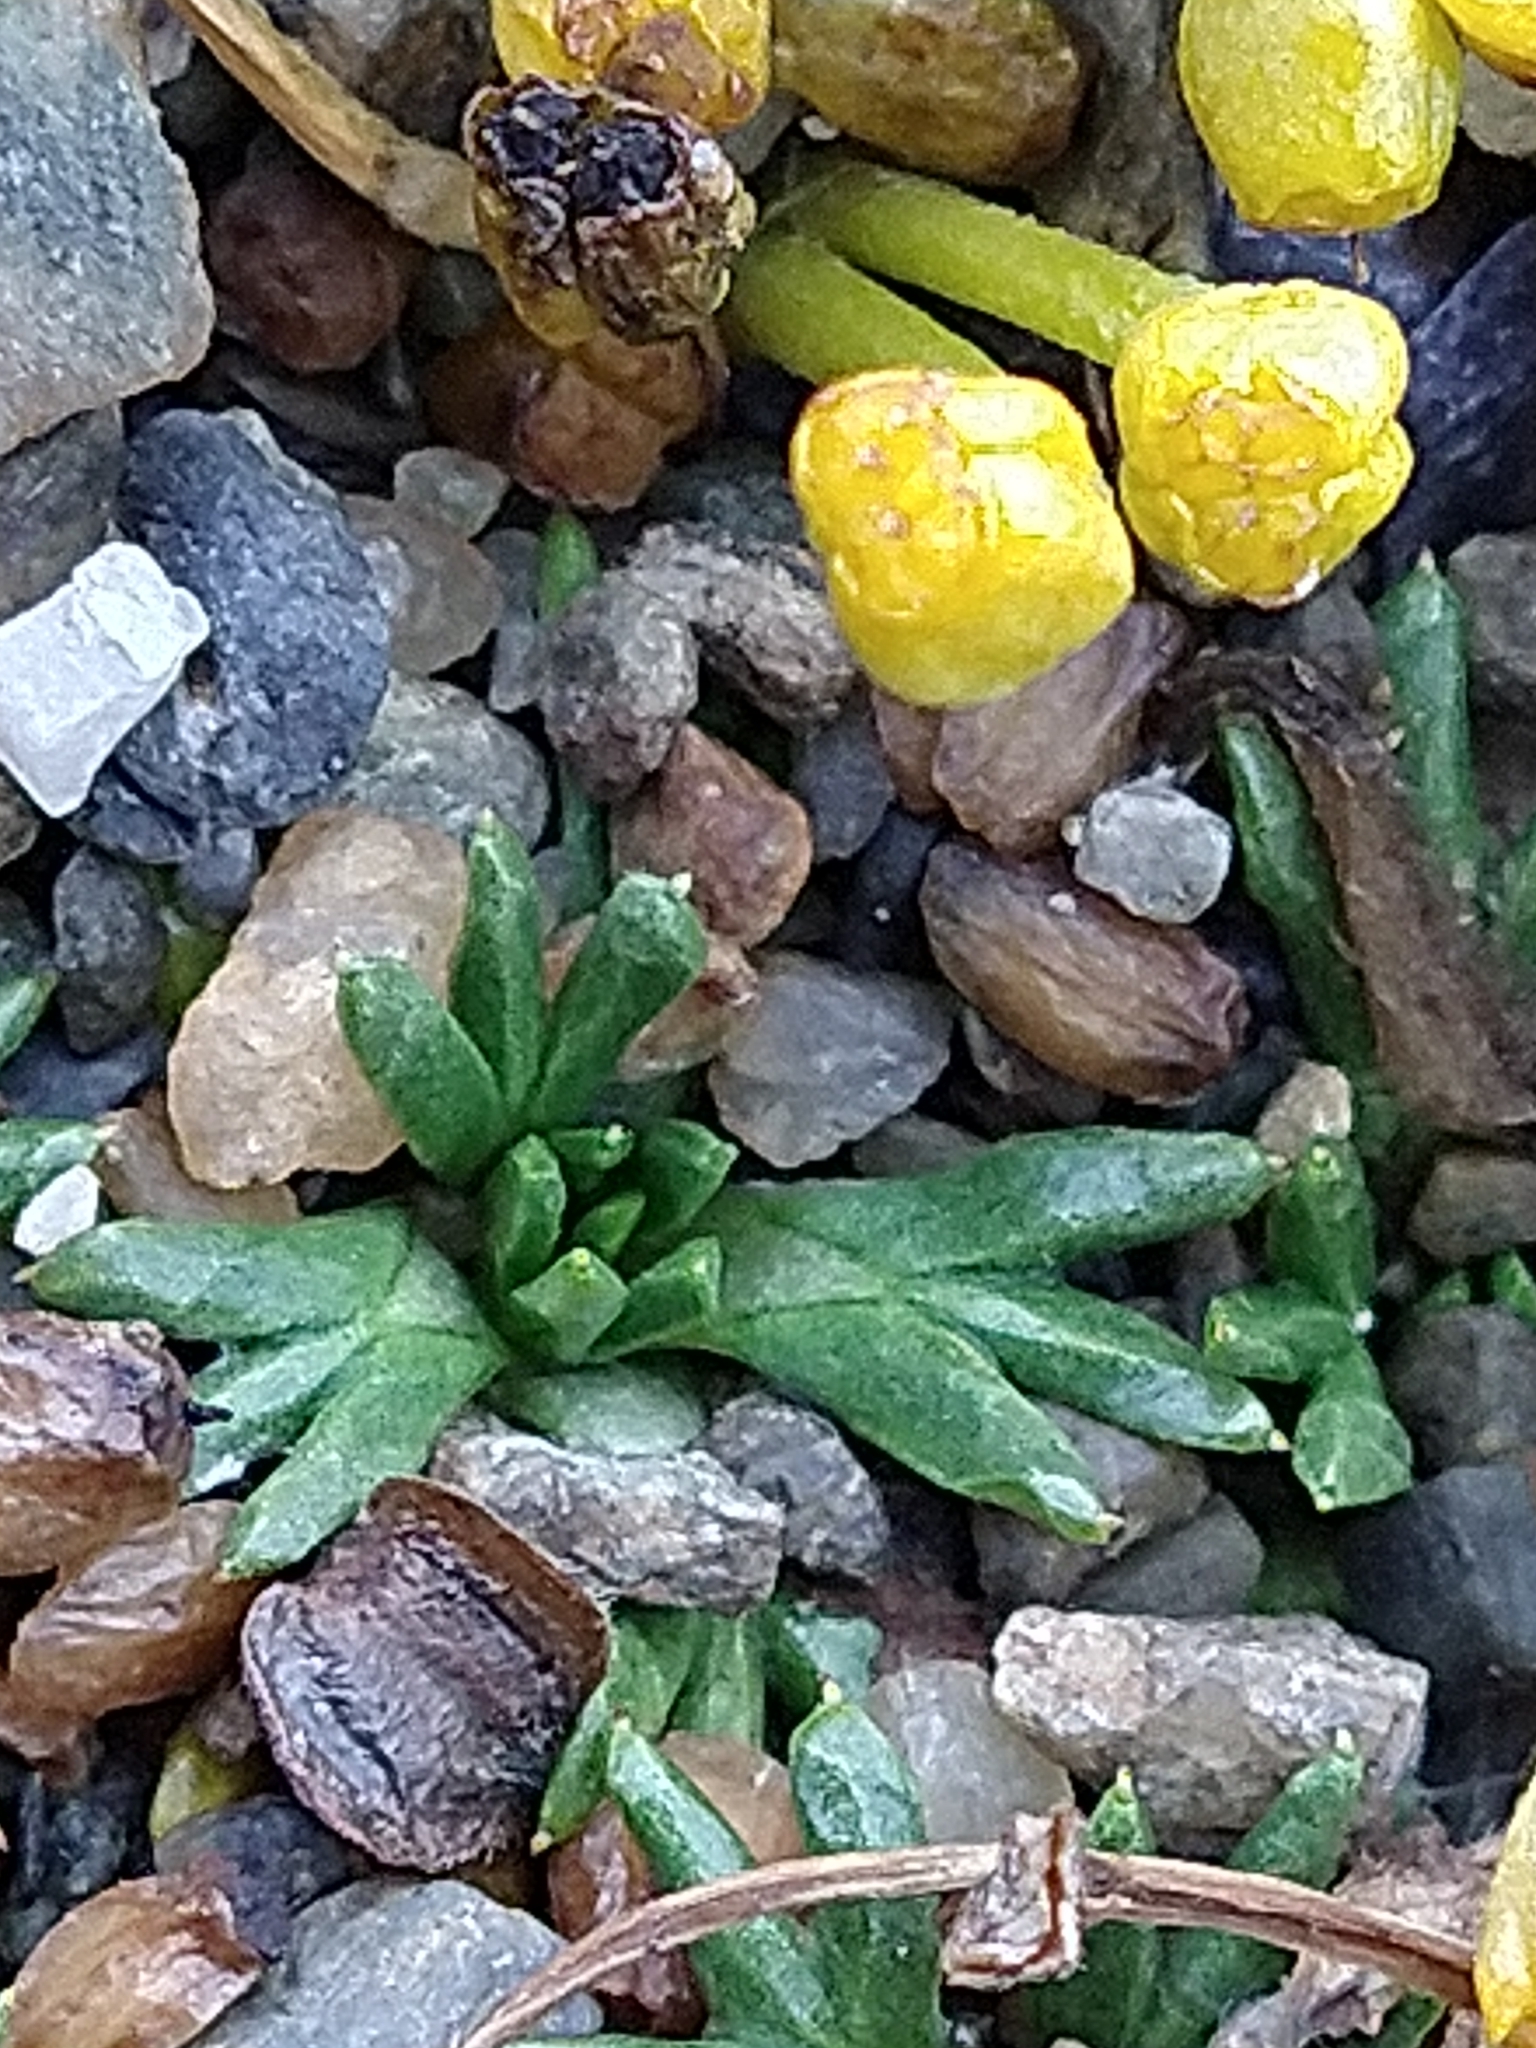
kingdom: Plantae
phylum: Tracheophyta
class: Magnoliopsida
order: Apiales
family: Apiaceae
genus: Azorella
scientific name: Azorella trifurcata
